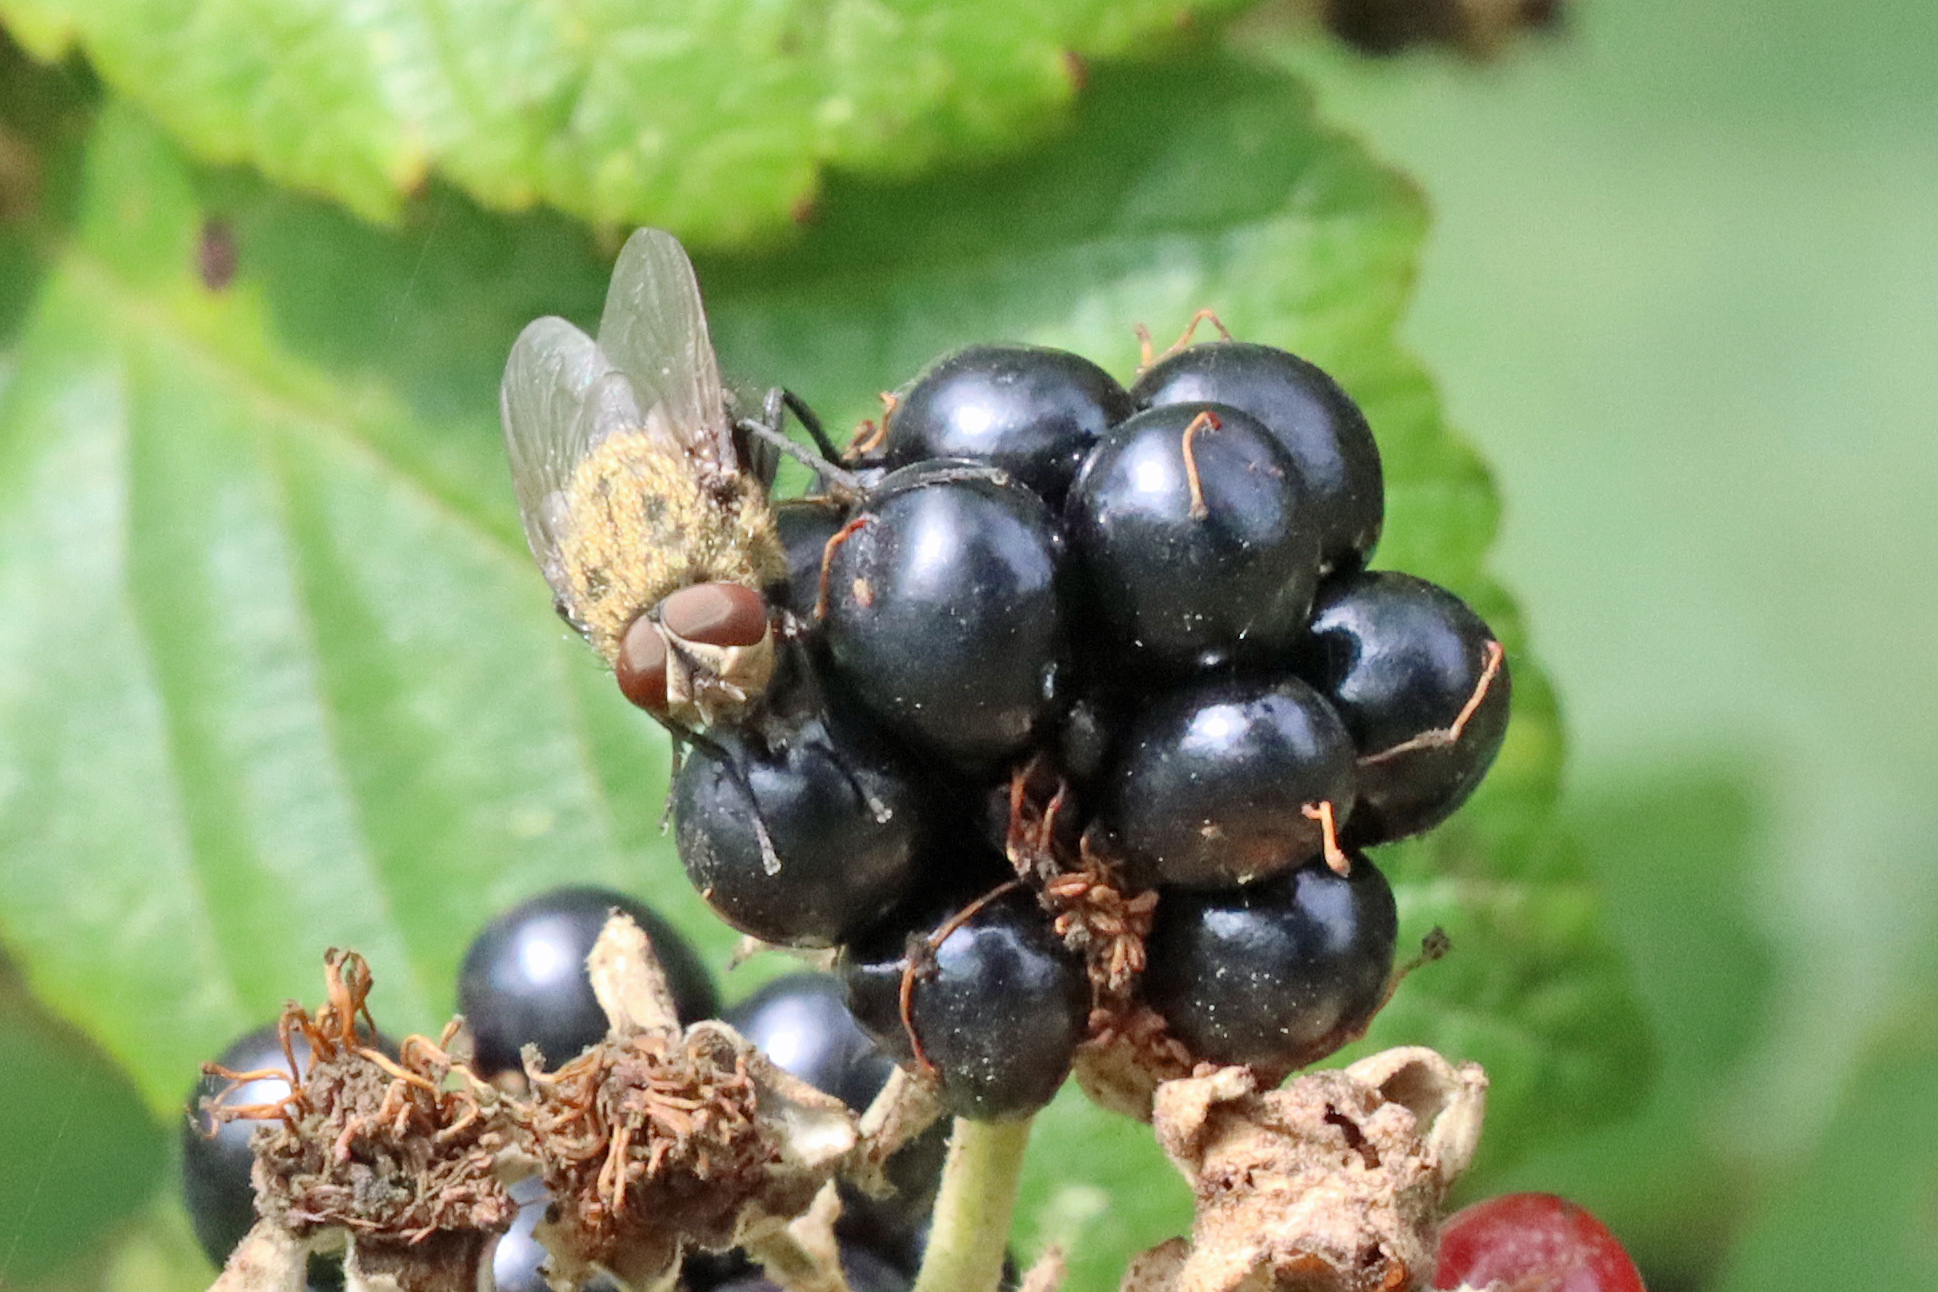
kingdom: Animalia
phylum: Arthropoda
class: Insecta
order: Diptera
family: Polleniidae
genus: Pollenia
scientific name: Pollenia
